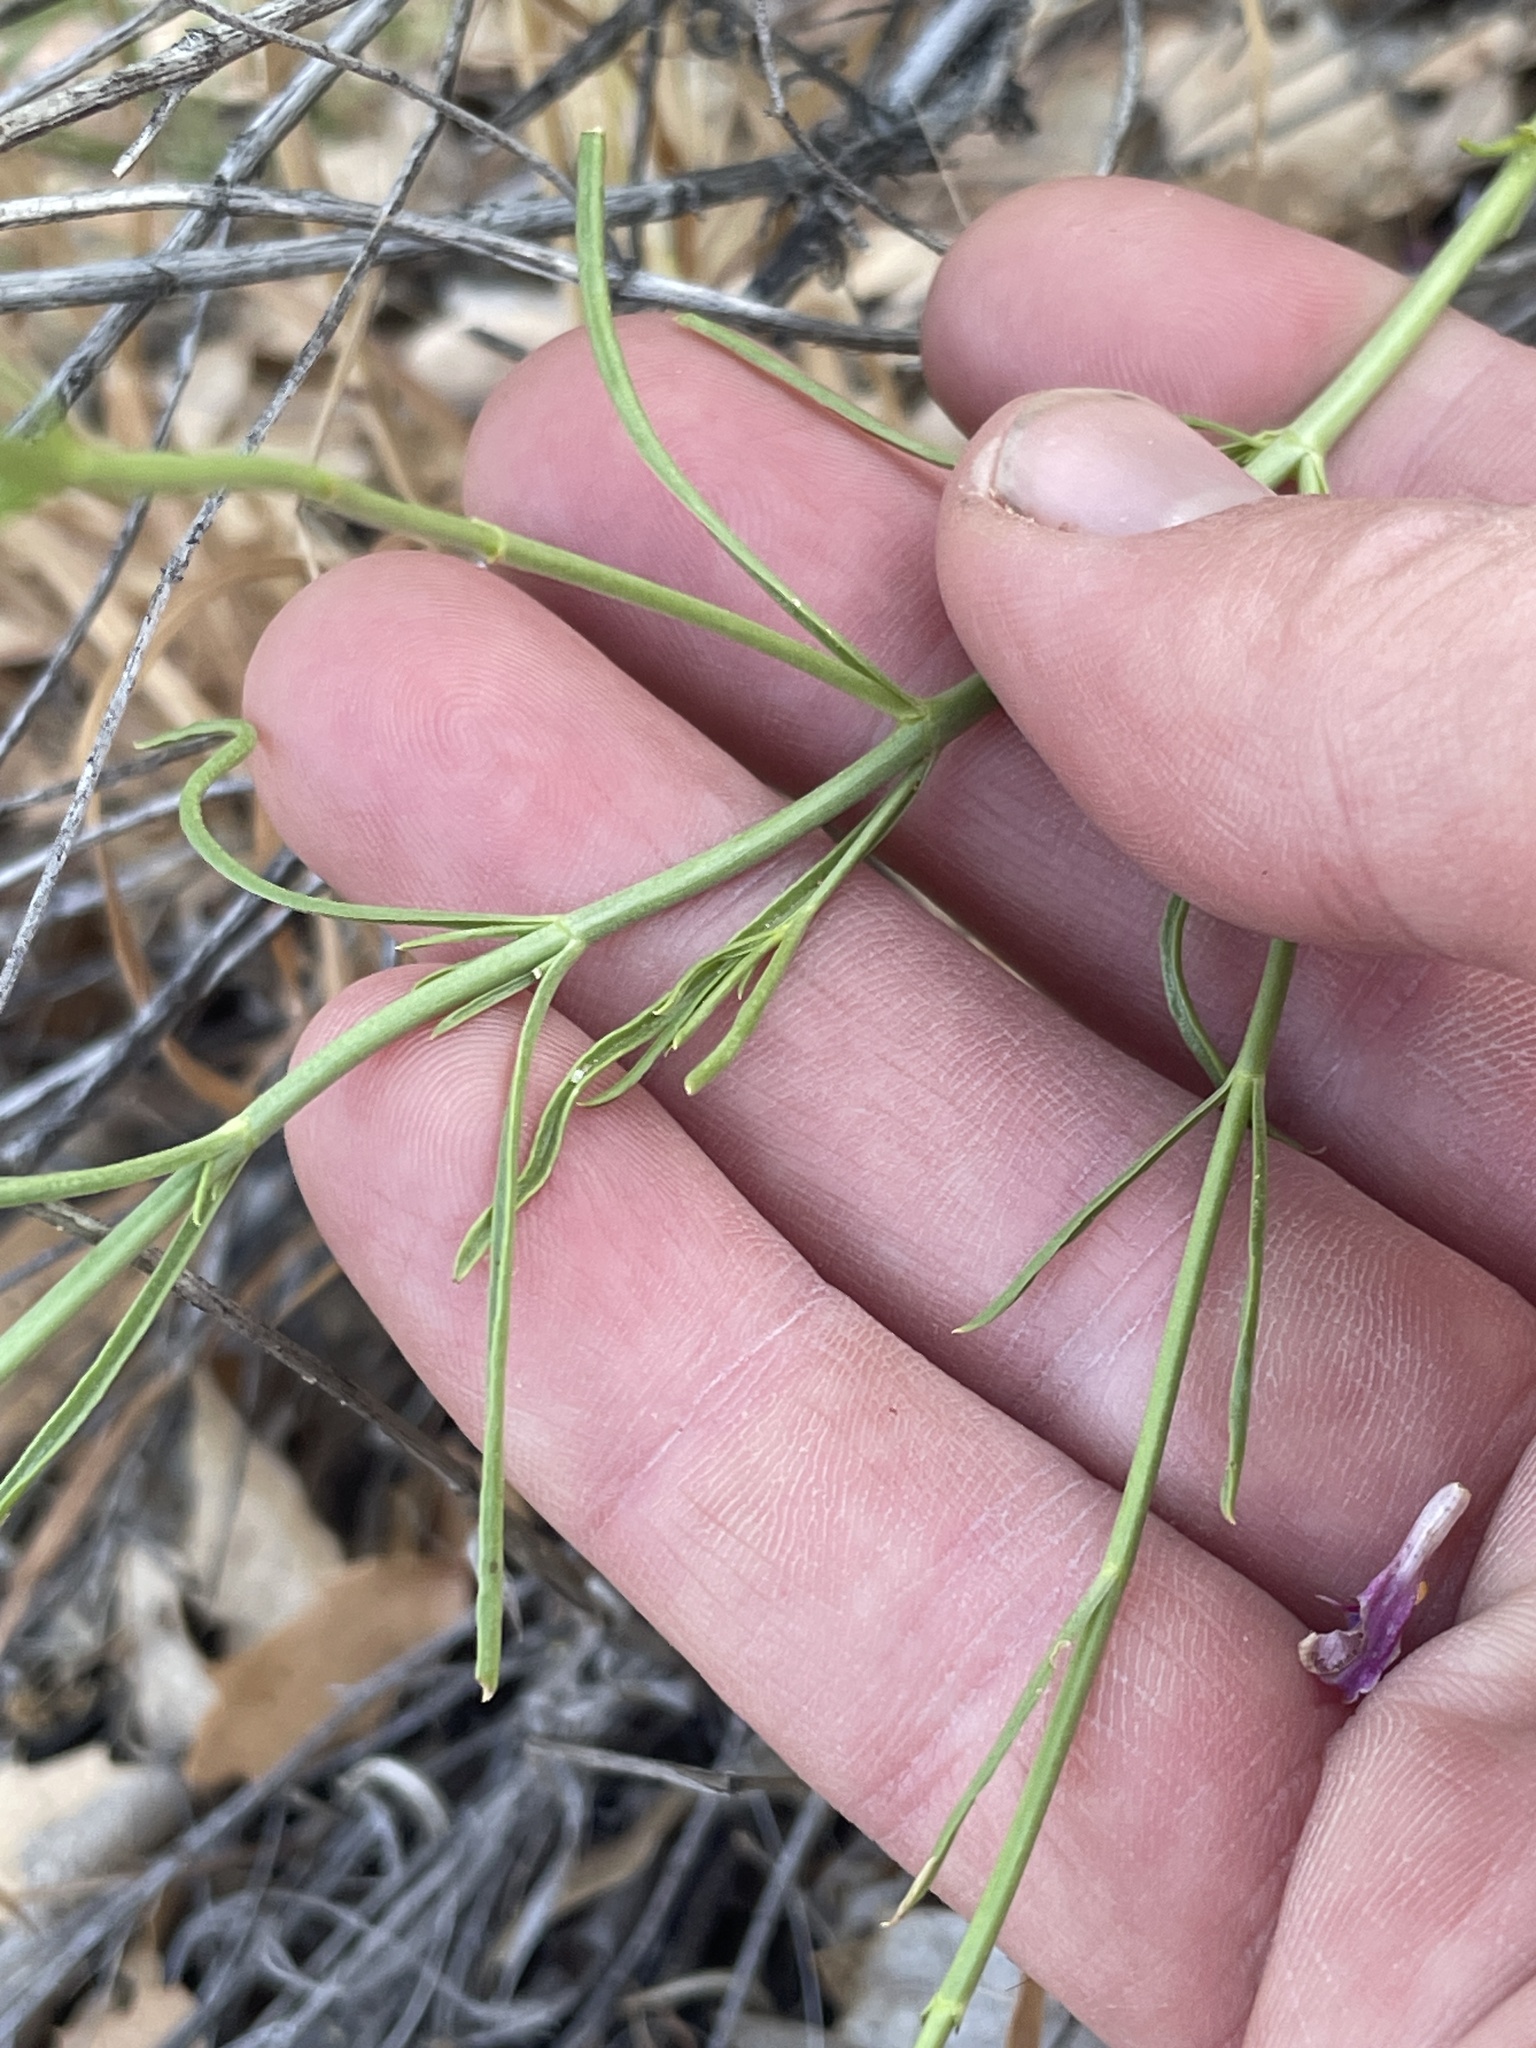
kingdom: Plantae
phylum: Tracheophyta
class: Magnoliopsida
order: Lamiales
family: Plantaginaceae
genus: Penstemon
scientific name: Penstemon ambiguus
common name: Bush penstemon
